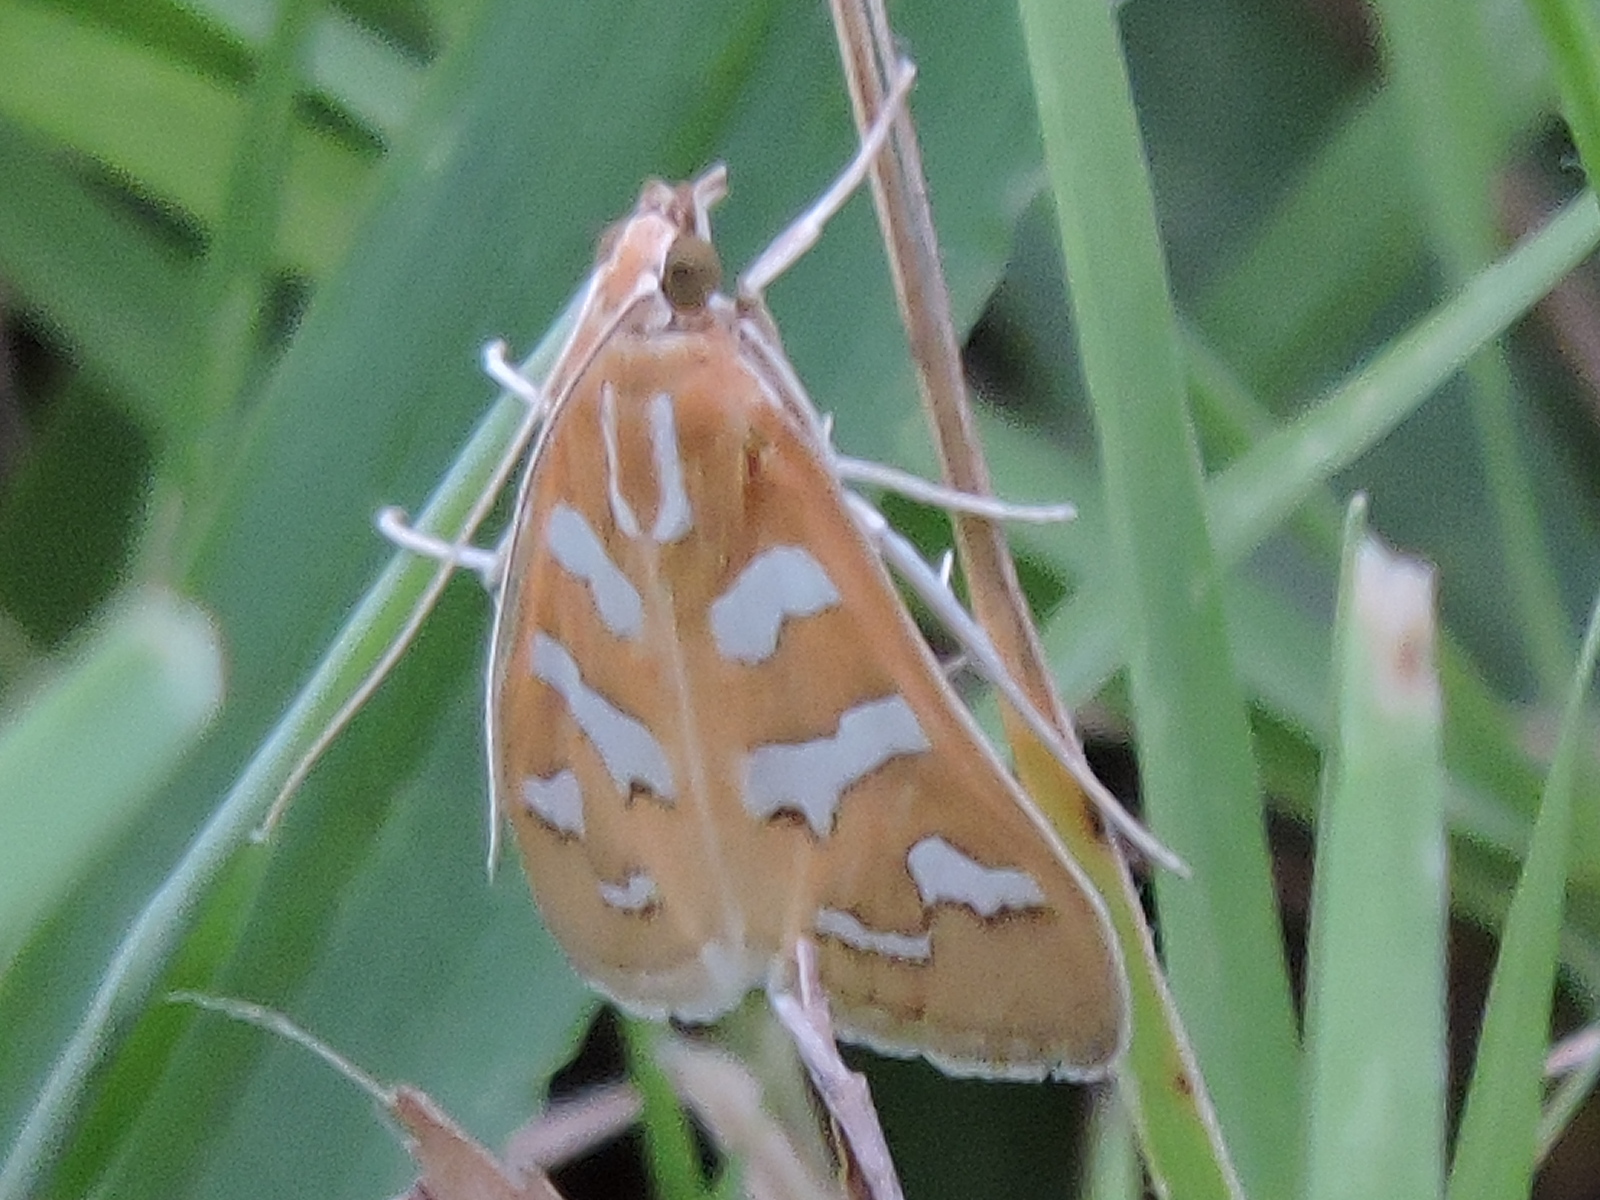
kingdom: Animalia
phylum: Arthropoda
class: Insecta
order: Lepidoptera
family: Crambidae
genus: Diastictis
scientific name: Diastictis fracturalis
